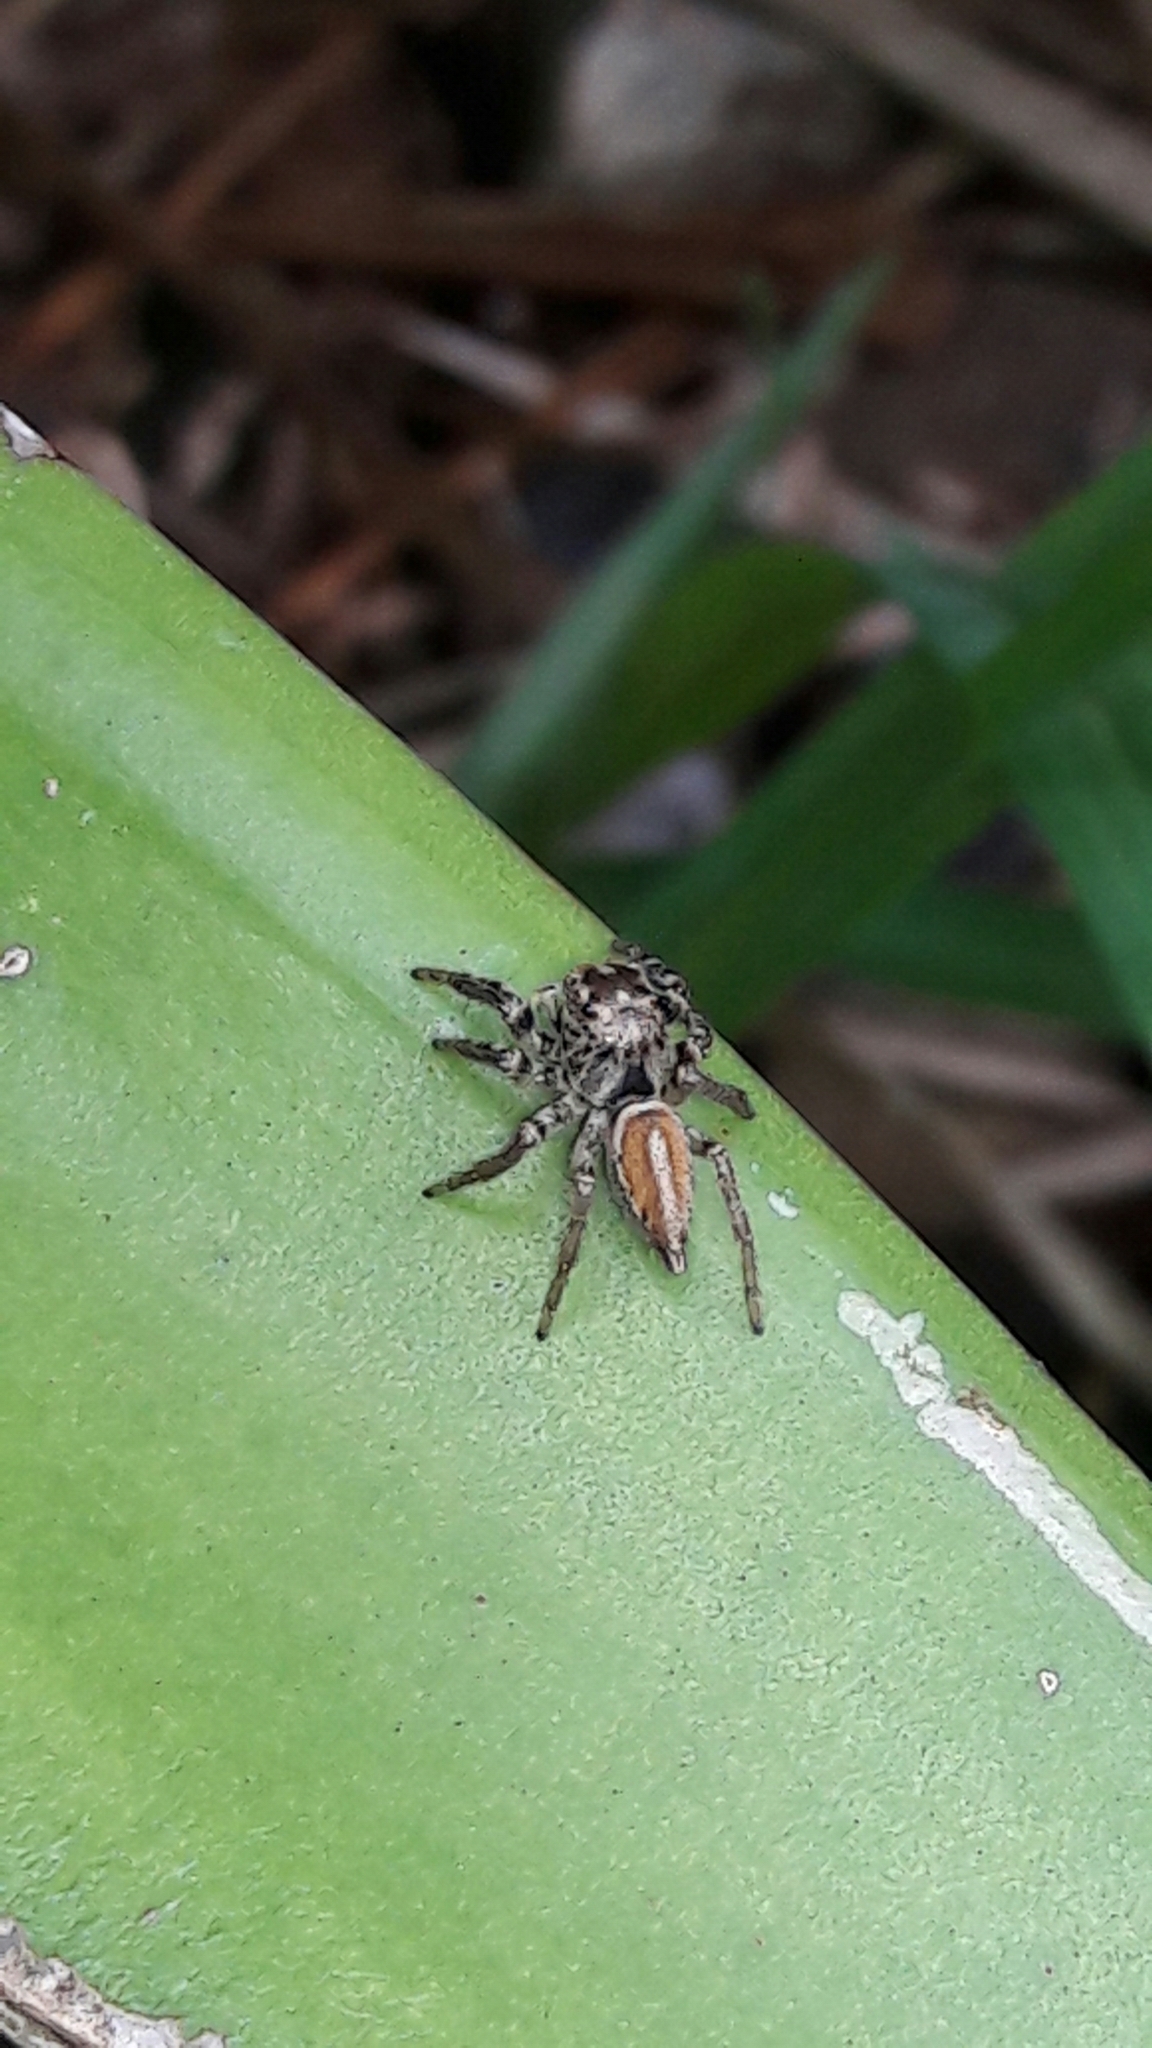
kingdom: Animalia
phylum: Arthropoda
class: Arachnida
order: Araneae
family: Salticidae
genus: Freya
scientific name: Freya decorata
